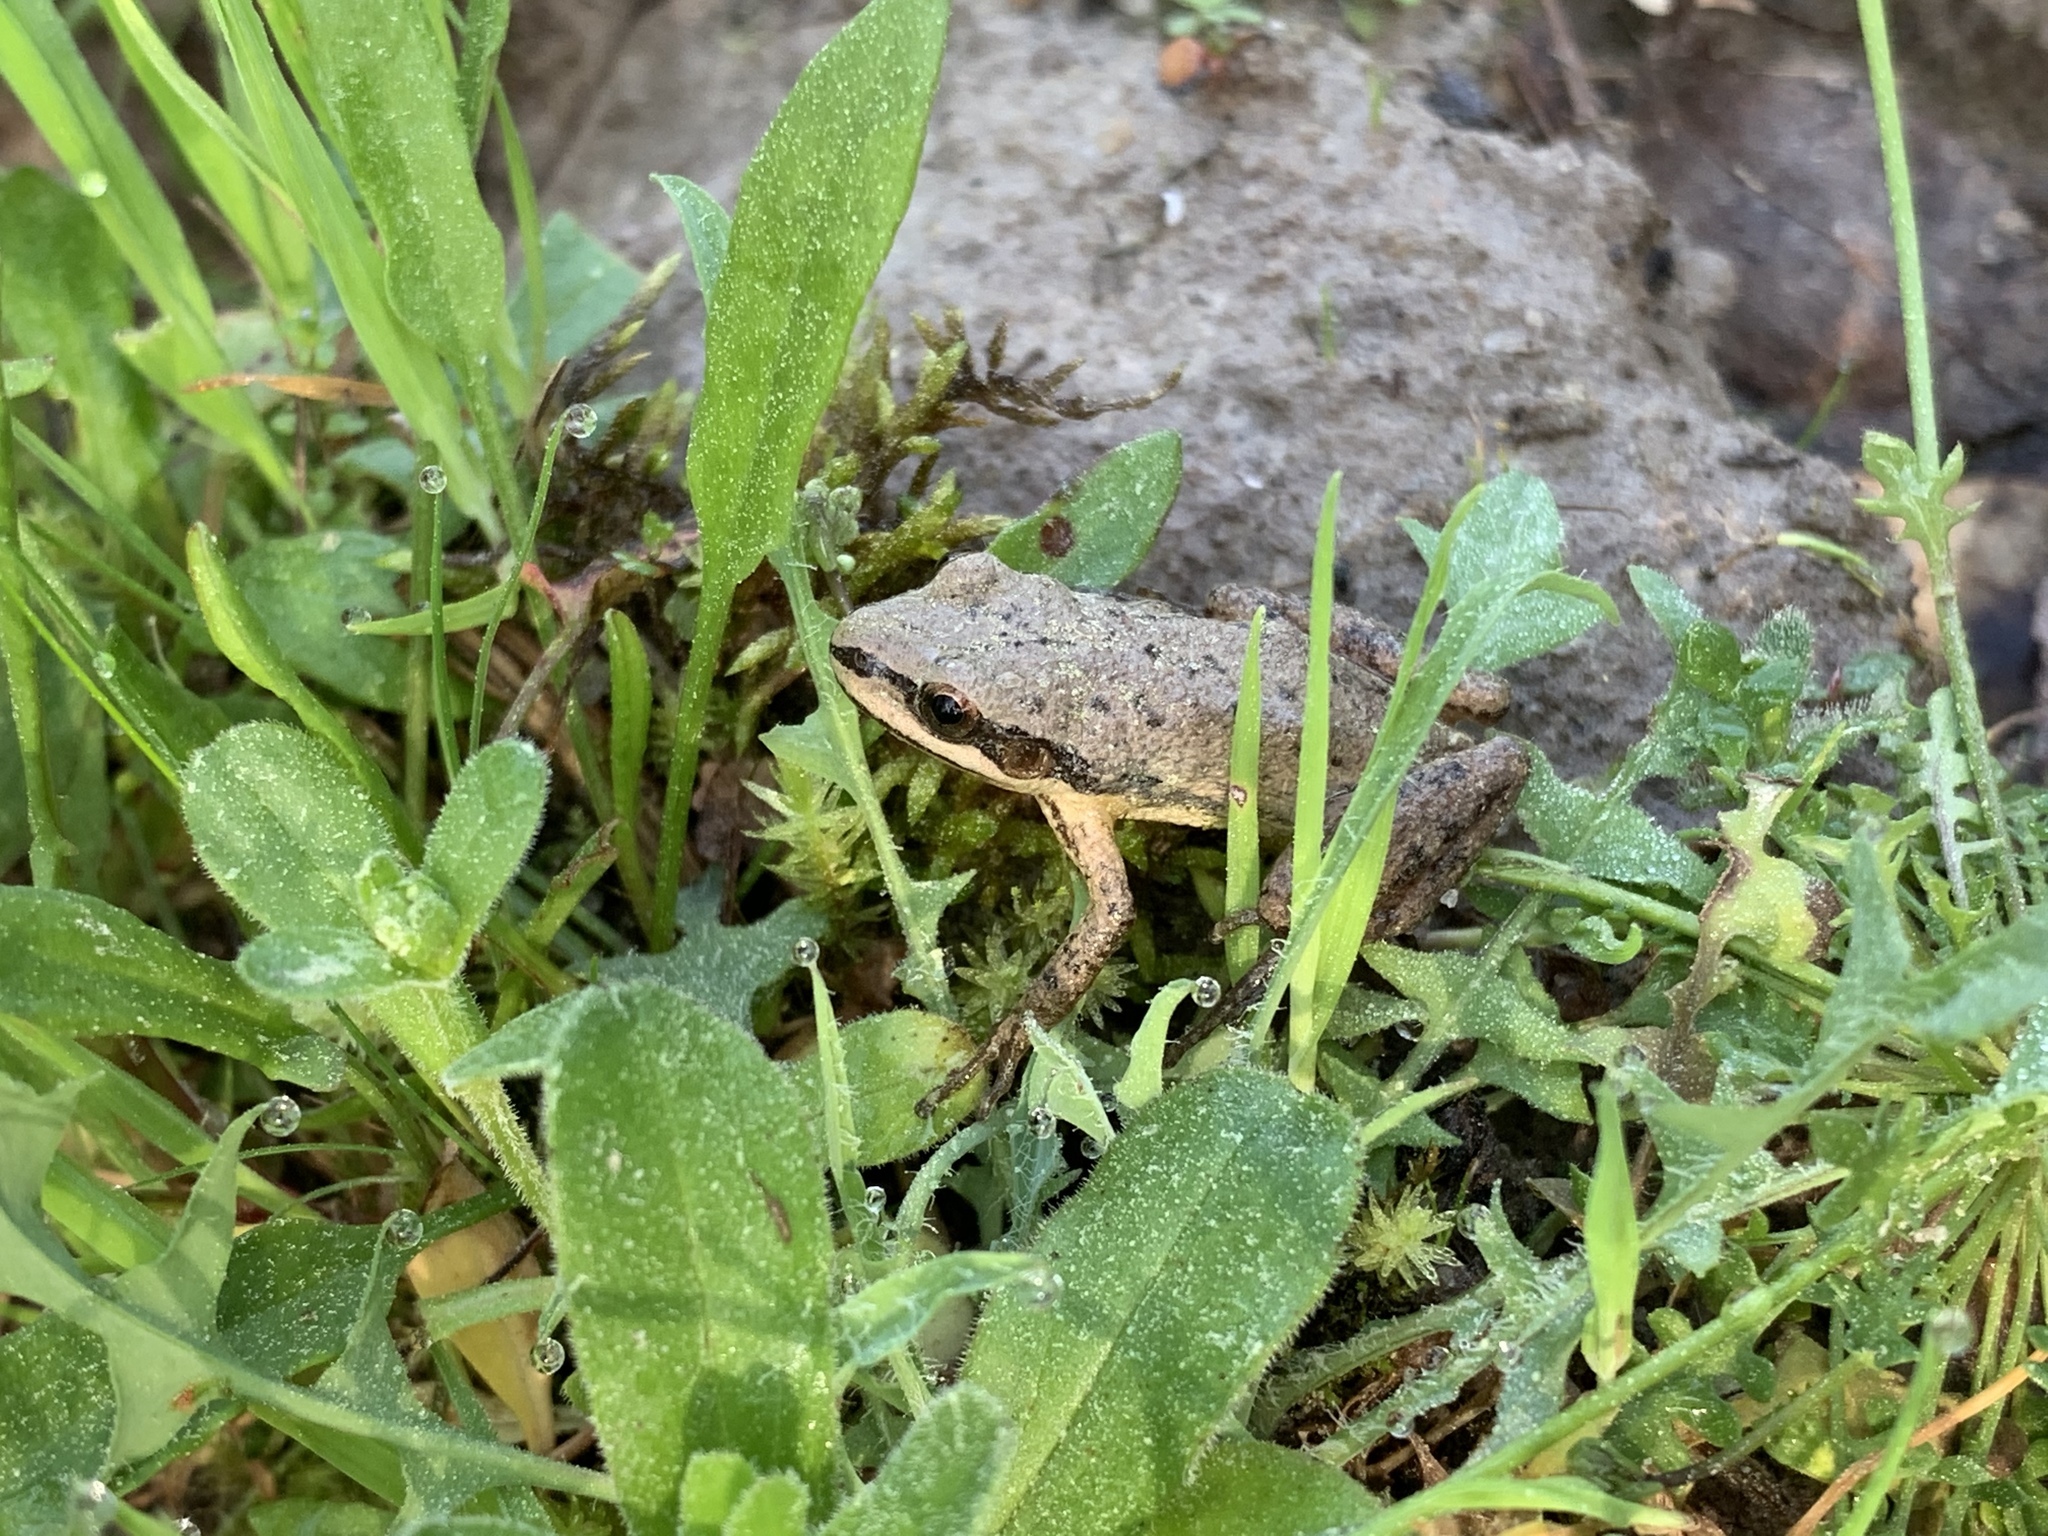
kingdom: Animalia
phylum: Chordata
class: Amphibia
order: Anura
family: Hylidae
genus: Pseudacris
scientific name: Pseudacris feriarum
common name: Upland chorus frog
